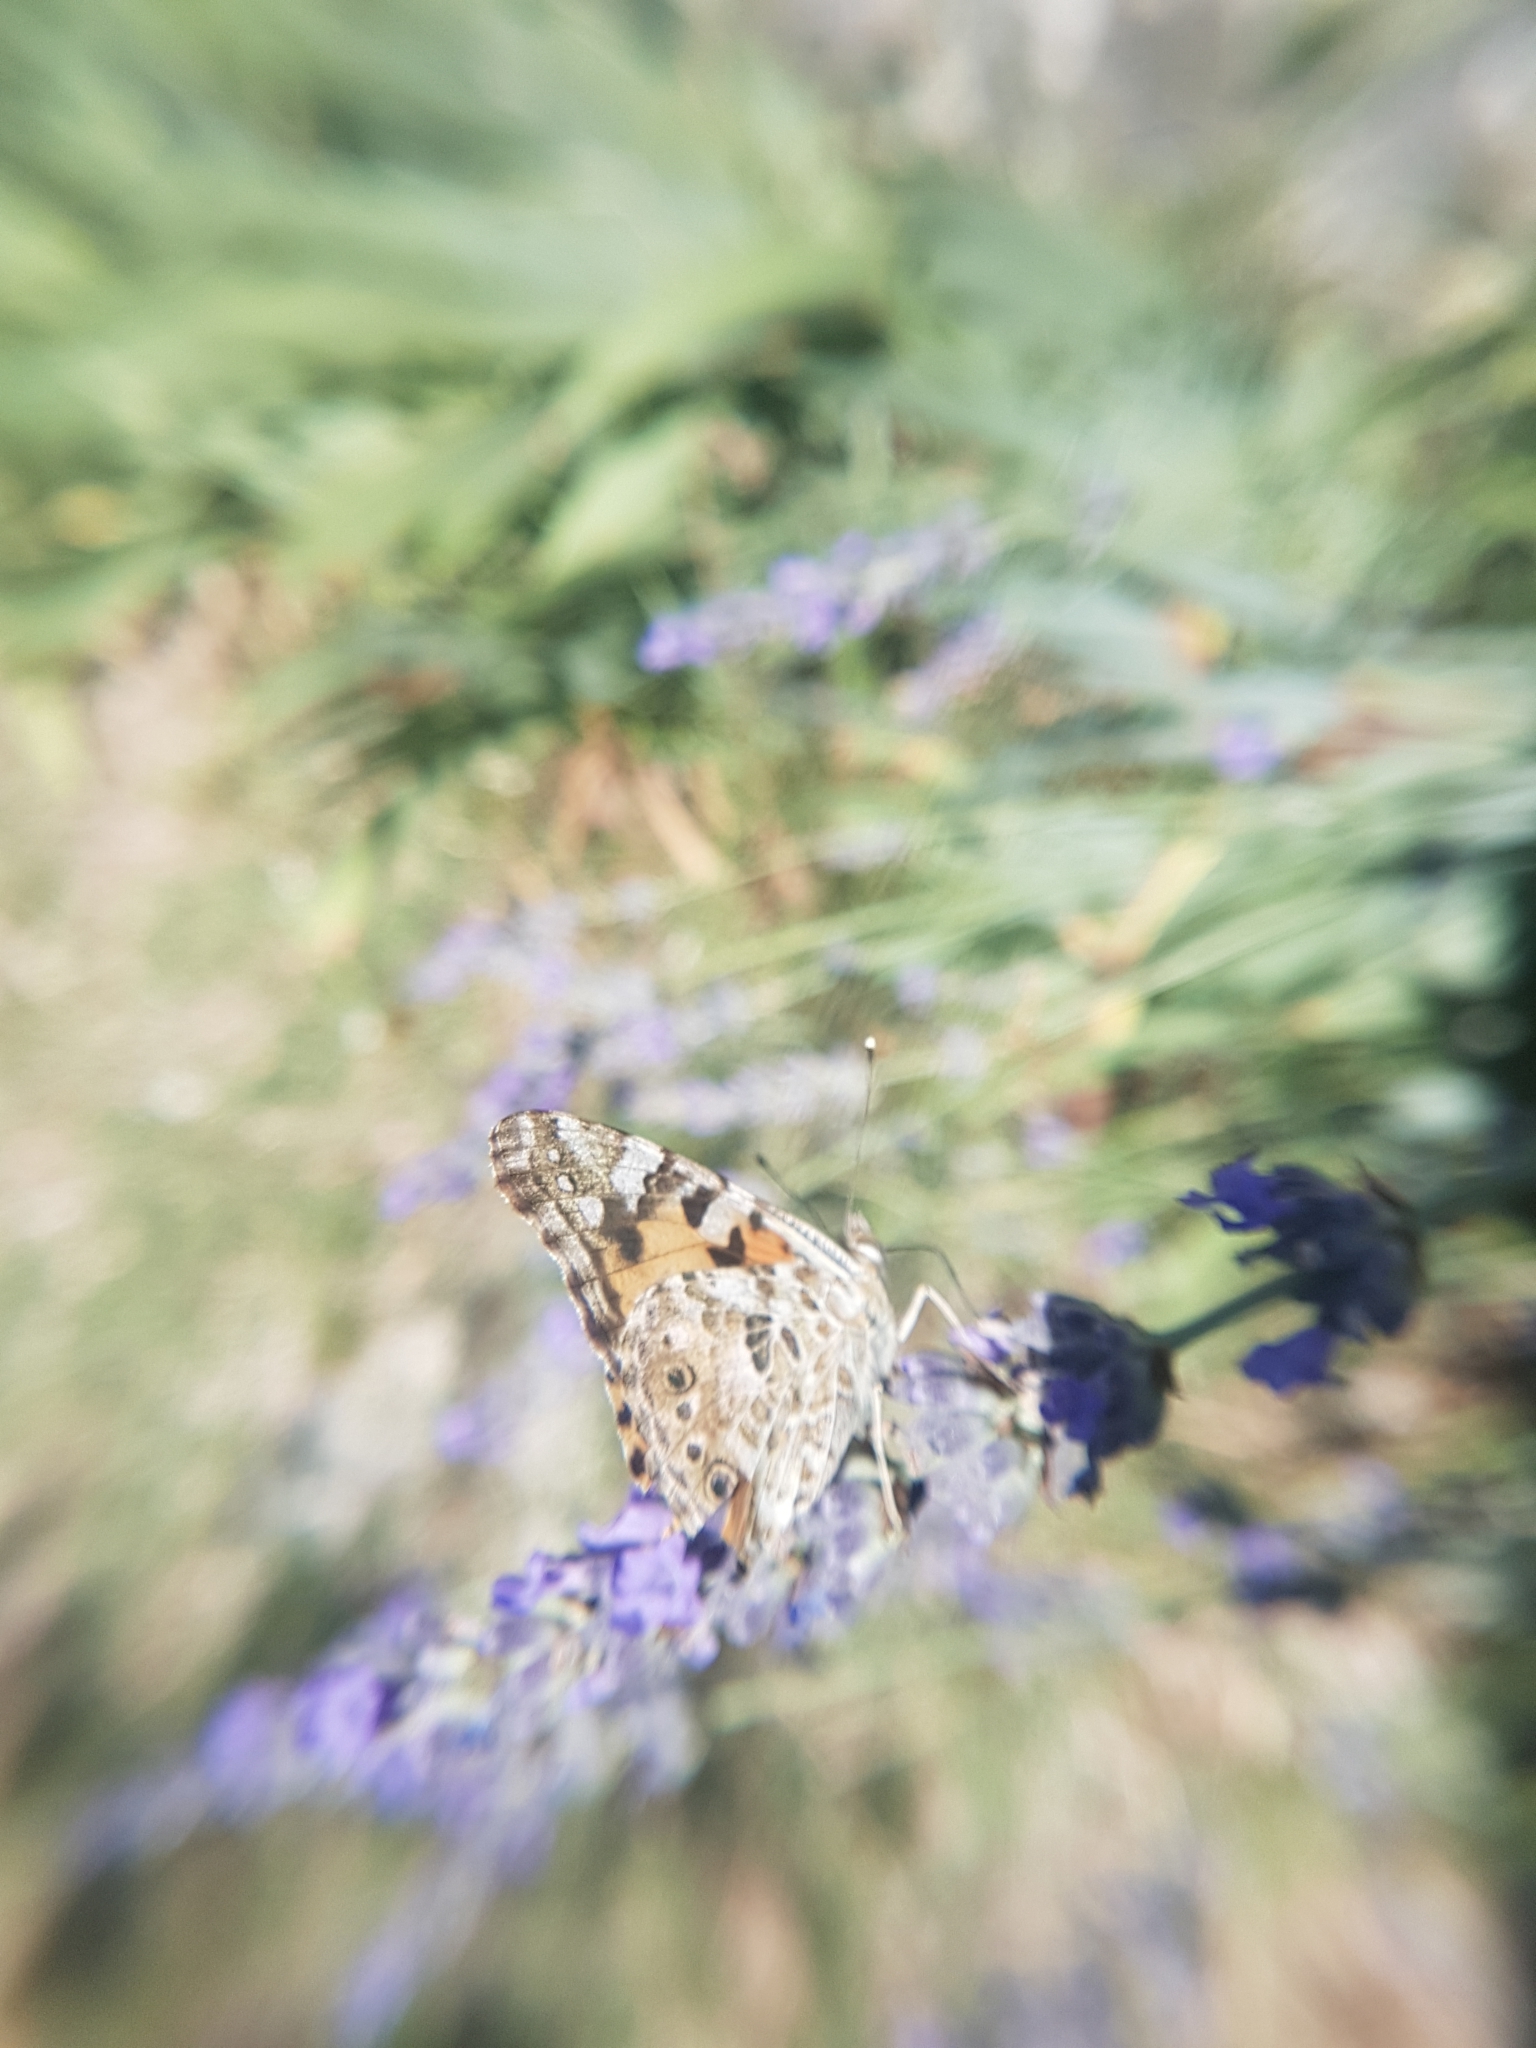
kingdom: Animalia
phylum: Arthropoda
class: Insecta
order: Lepidoptera
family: Nymphalidae
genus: Vanessa
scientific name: Vanessa cardui
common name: Painted lady
